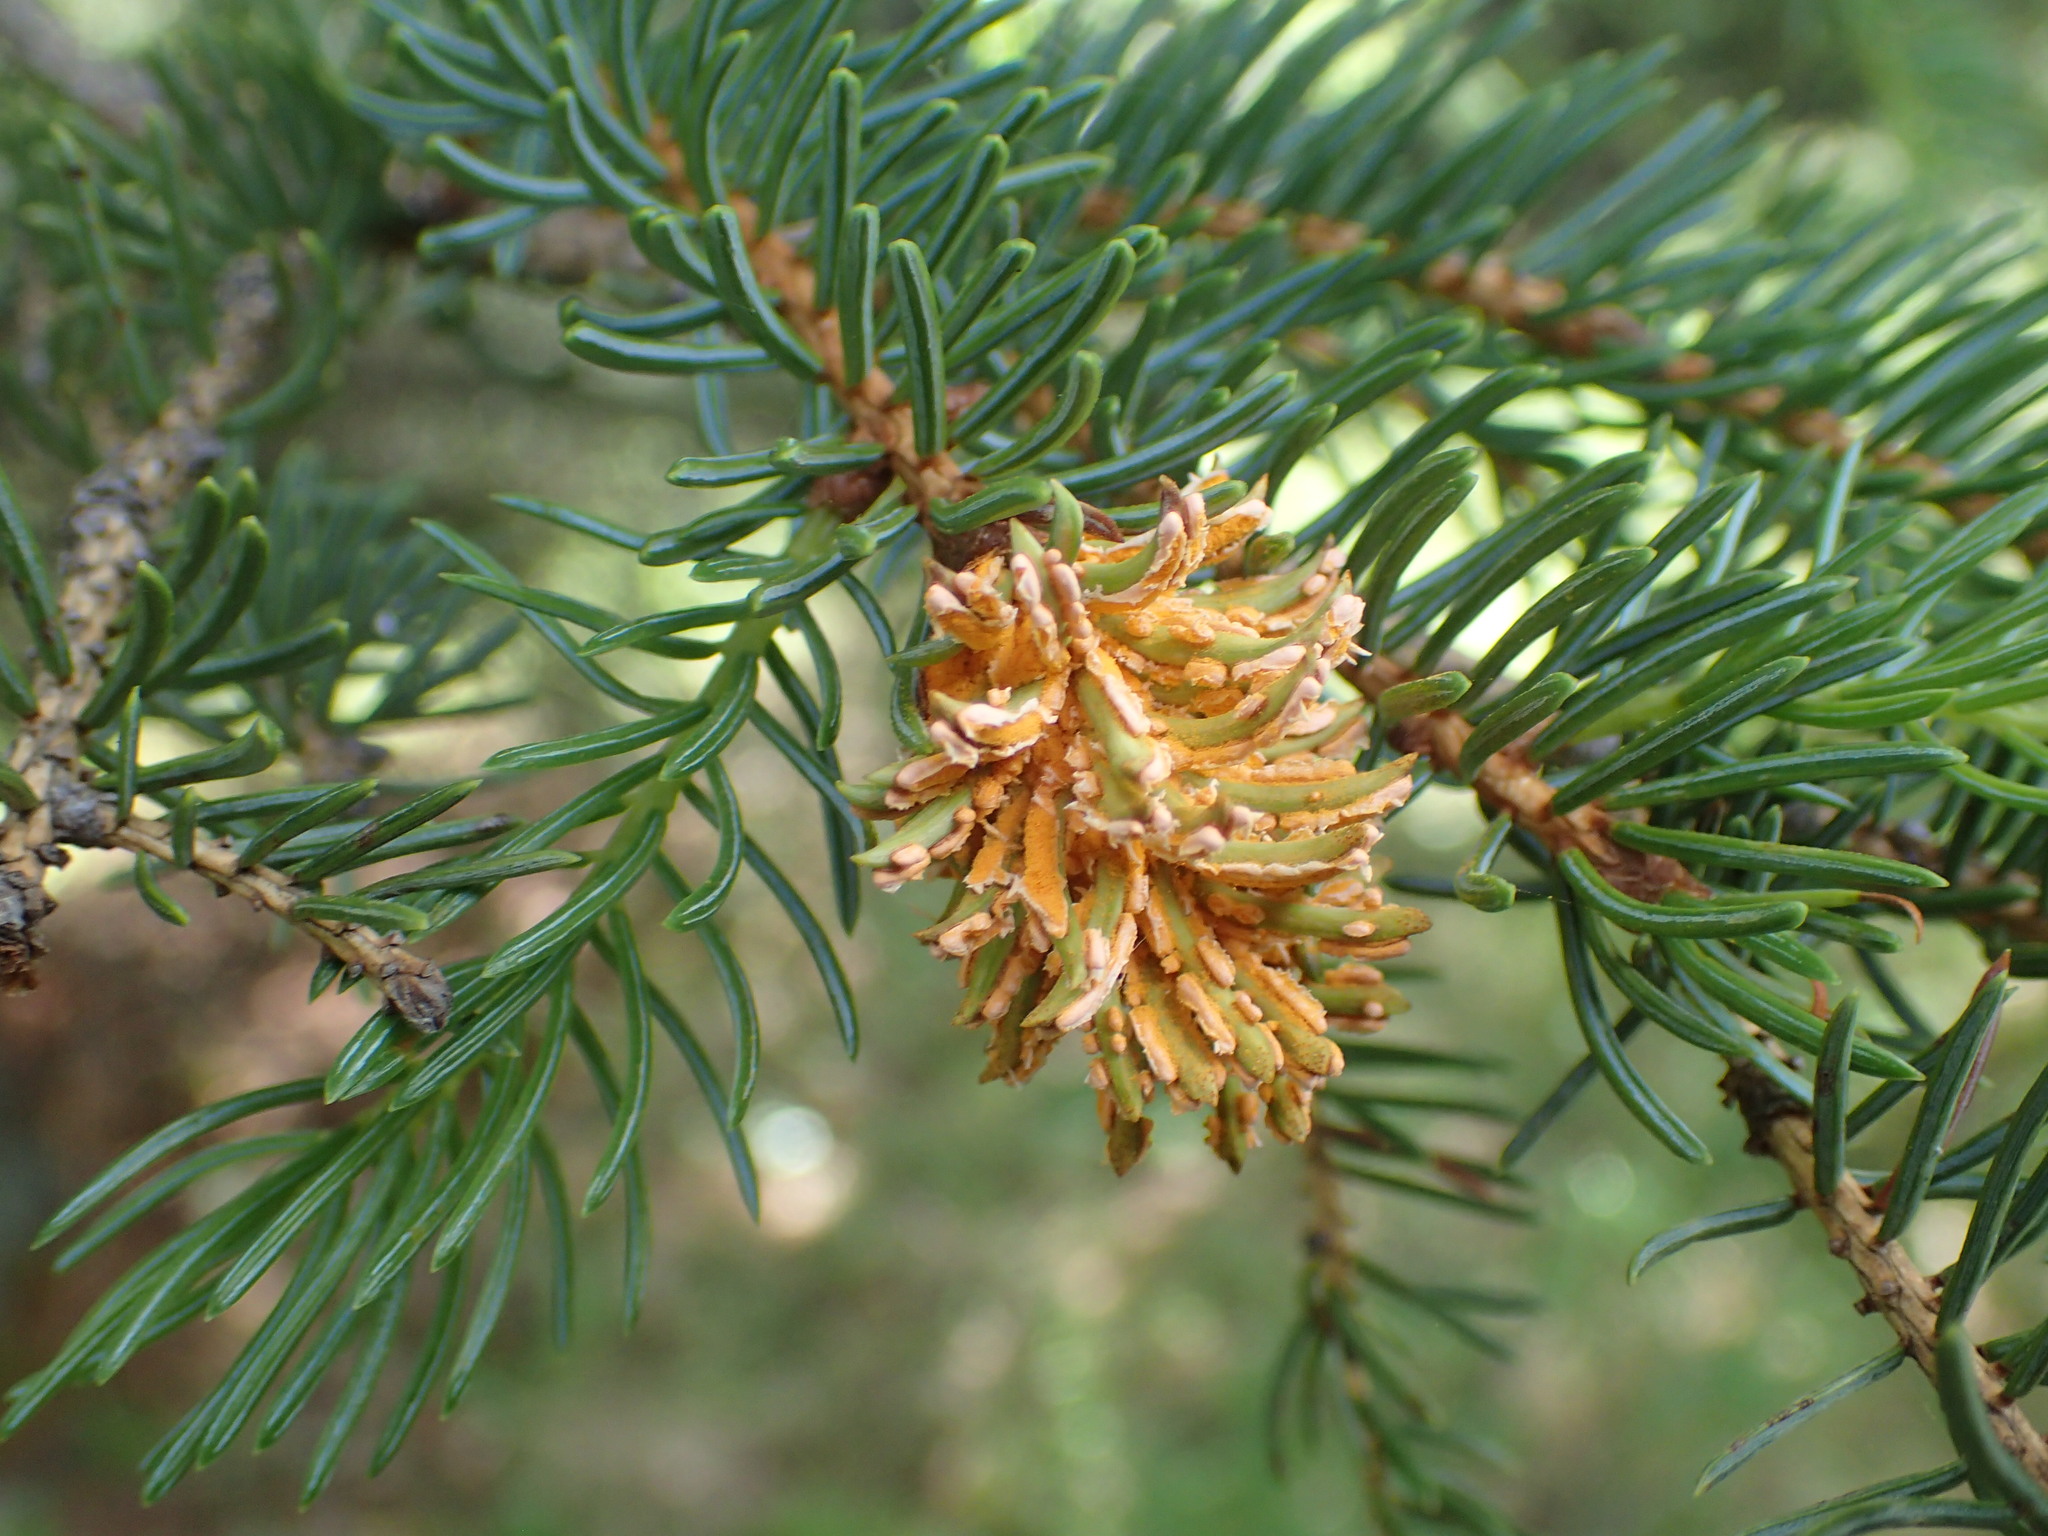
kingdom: Fungi
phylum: Basidiomycota
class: Pucciniomycetes
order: Pucciniales
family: Coleosporiaceae
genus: Chrysomyxa
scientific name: Chrysomyxa woroninii
